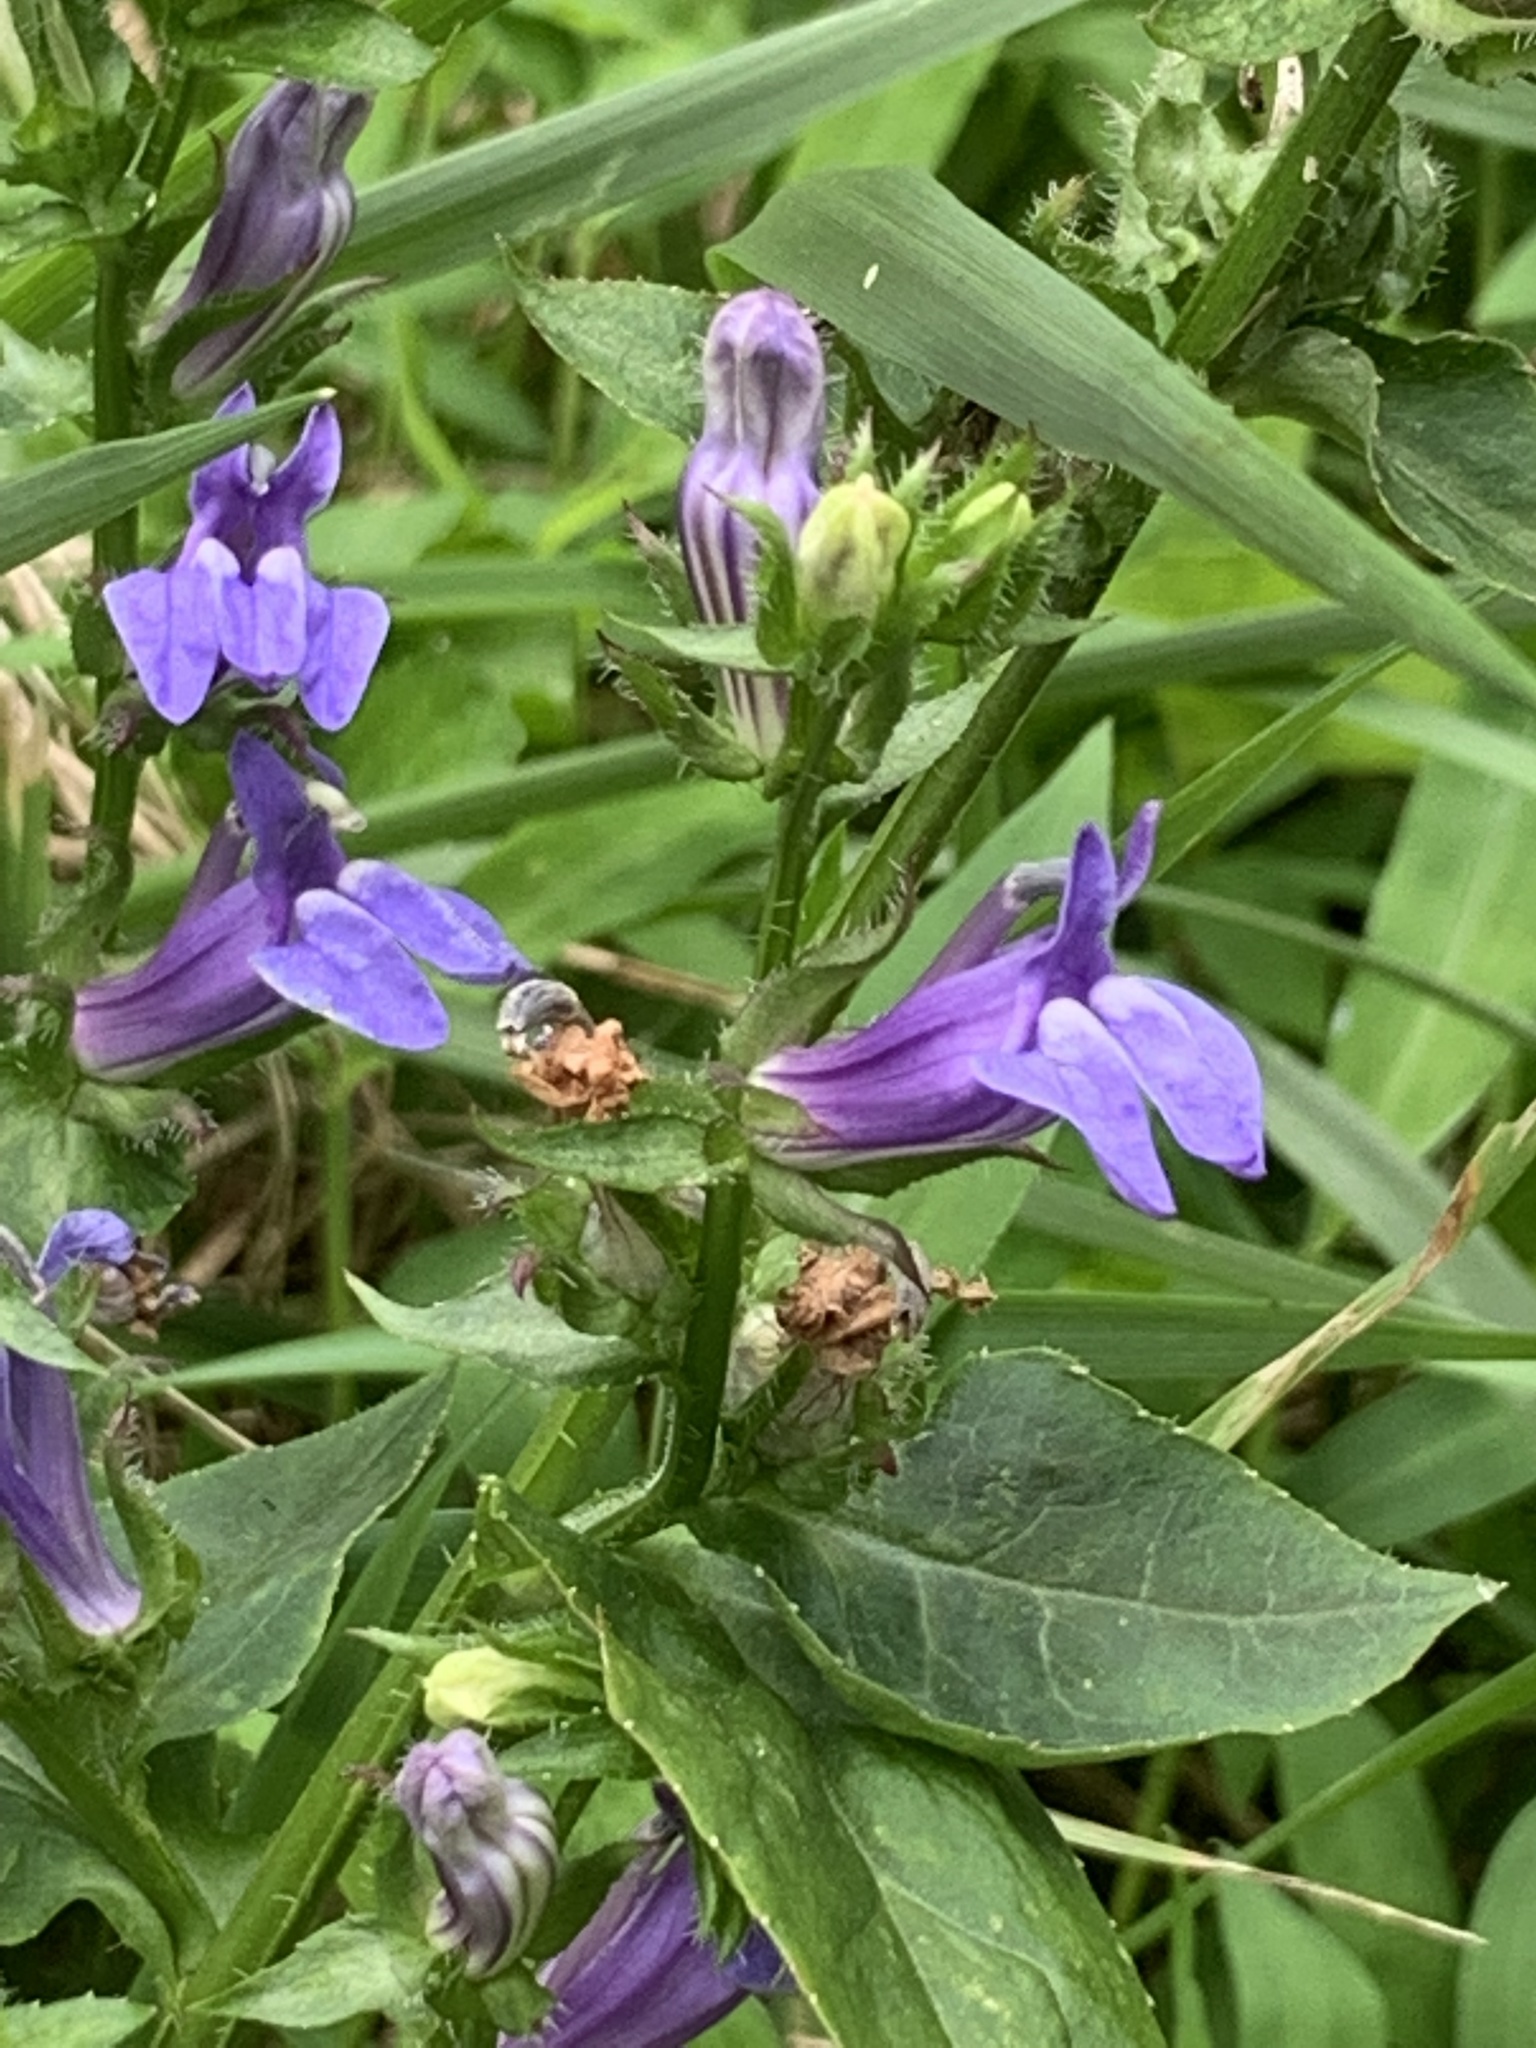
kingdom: Plantae
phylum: Tracheophyta
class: Magnoliopsida
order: Asterales
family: Campanulaceae
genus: Lobelia
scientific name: Lobelia siphilitica
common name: Great lobelia
